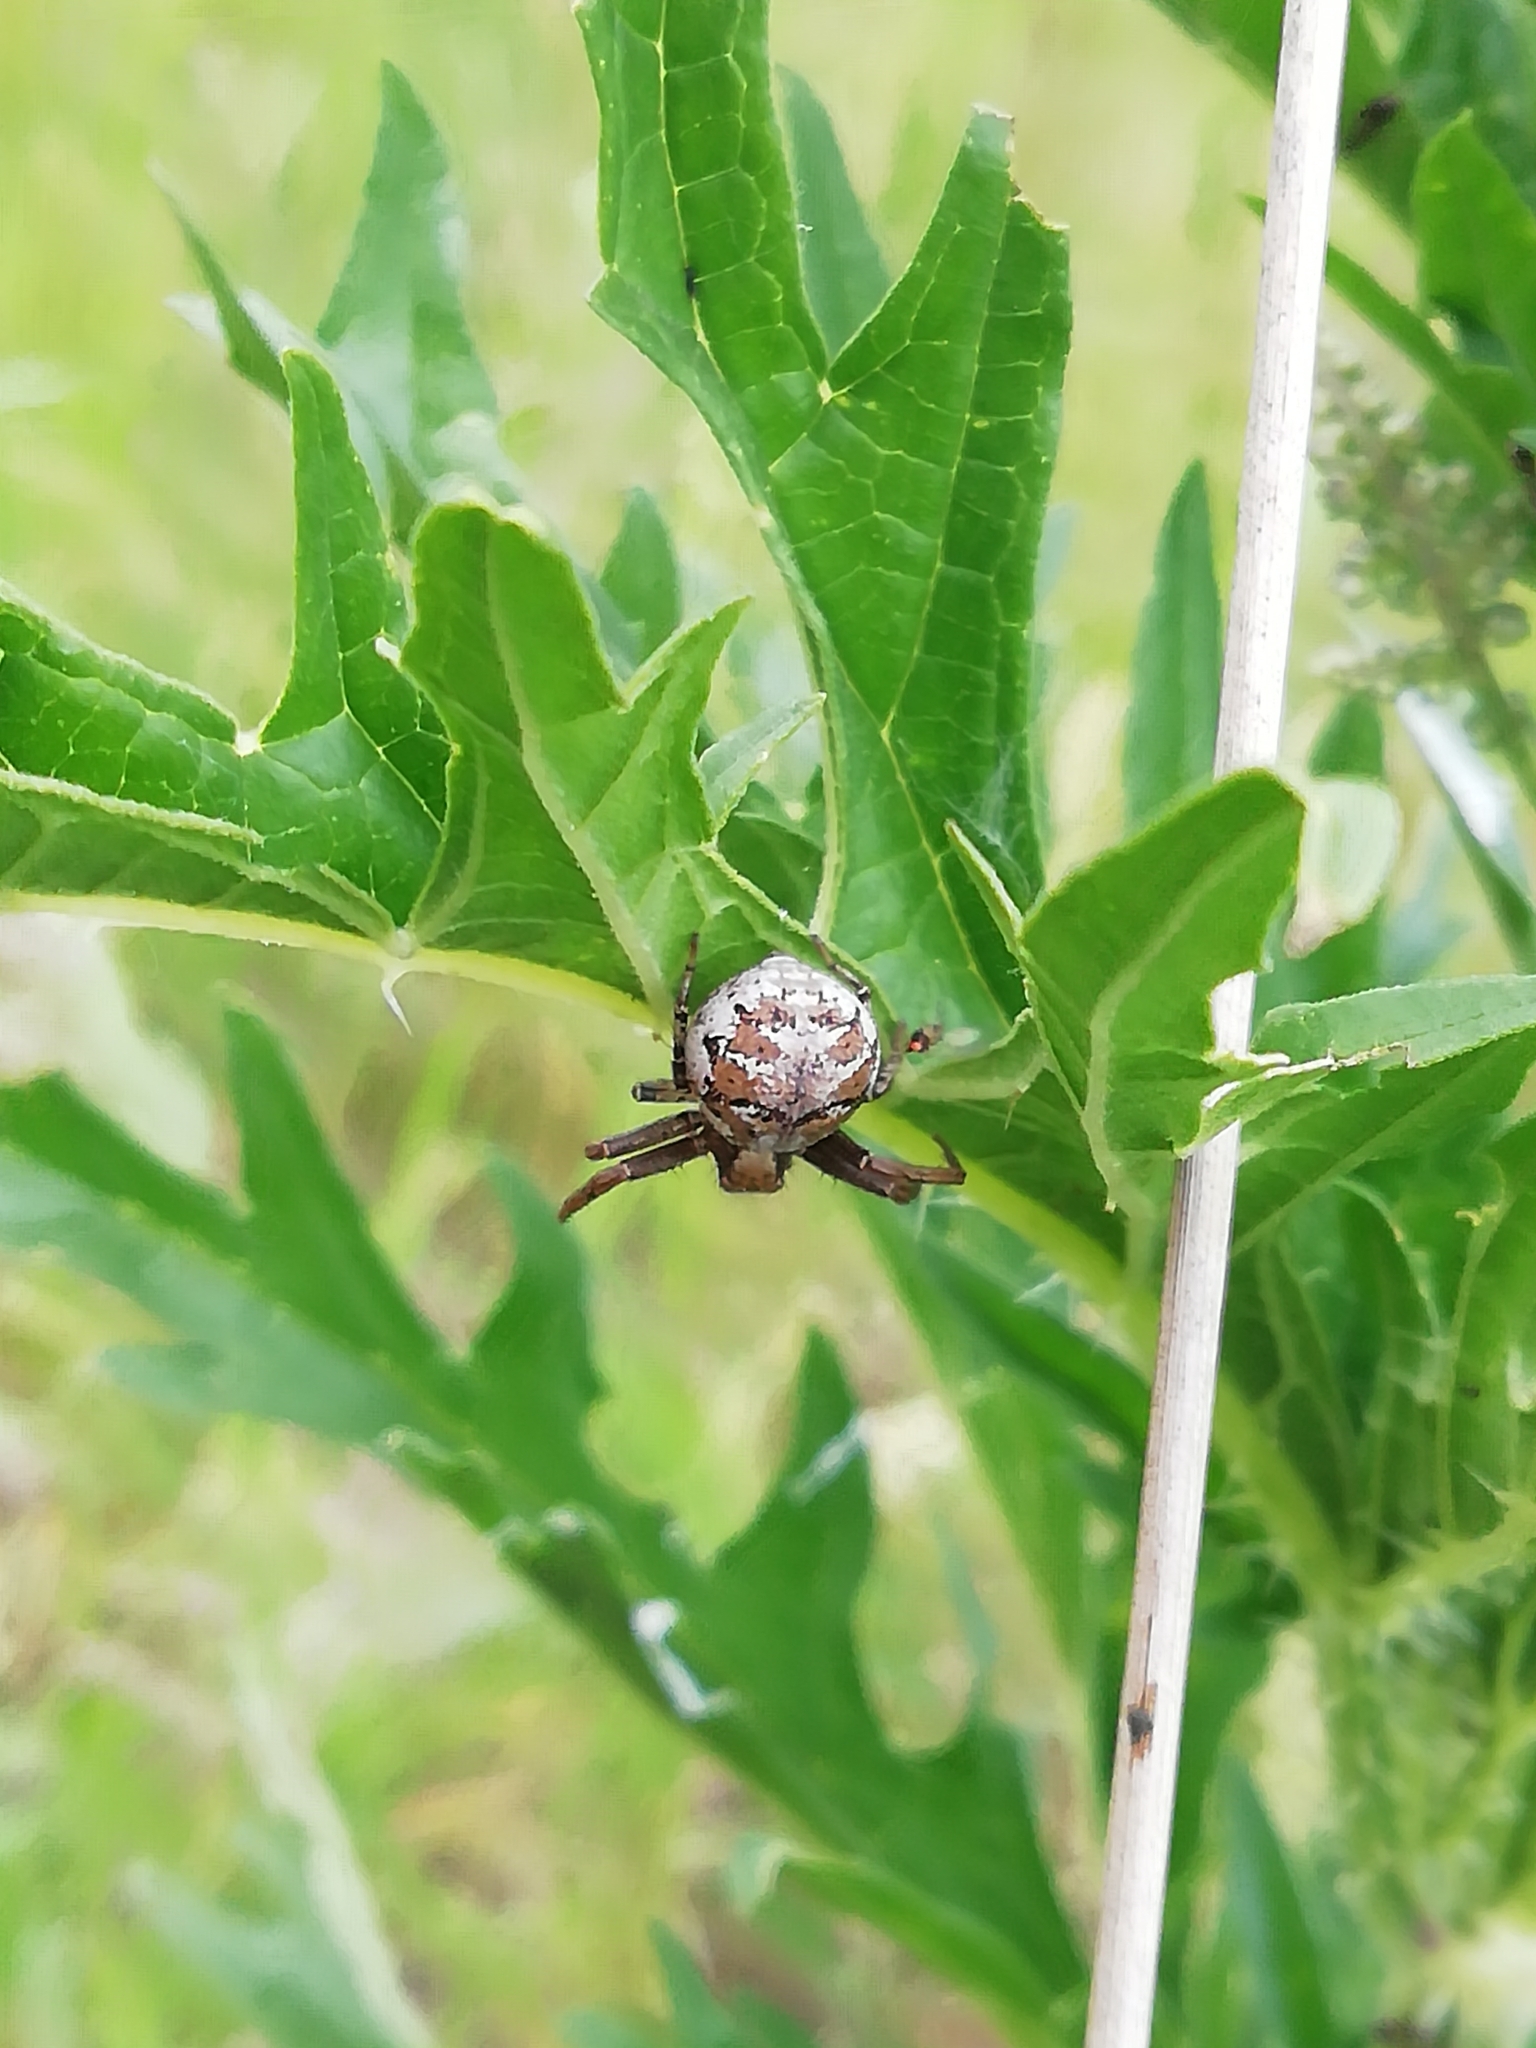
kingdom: Animalia
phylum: Arthropoda
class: Arachnida
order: Araneae
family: Thomisidae
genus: Xysticus
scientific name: Xysticus audax
